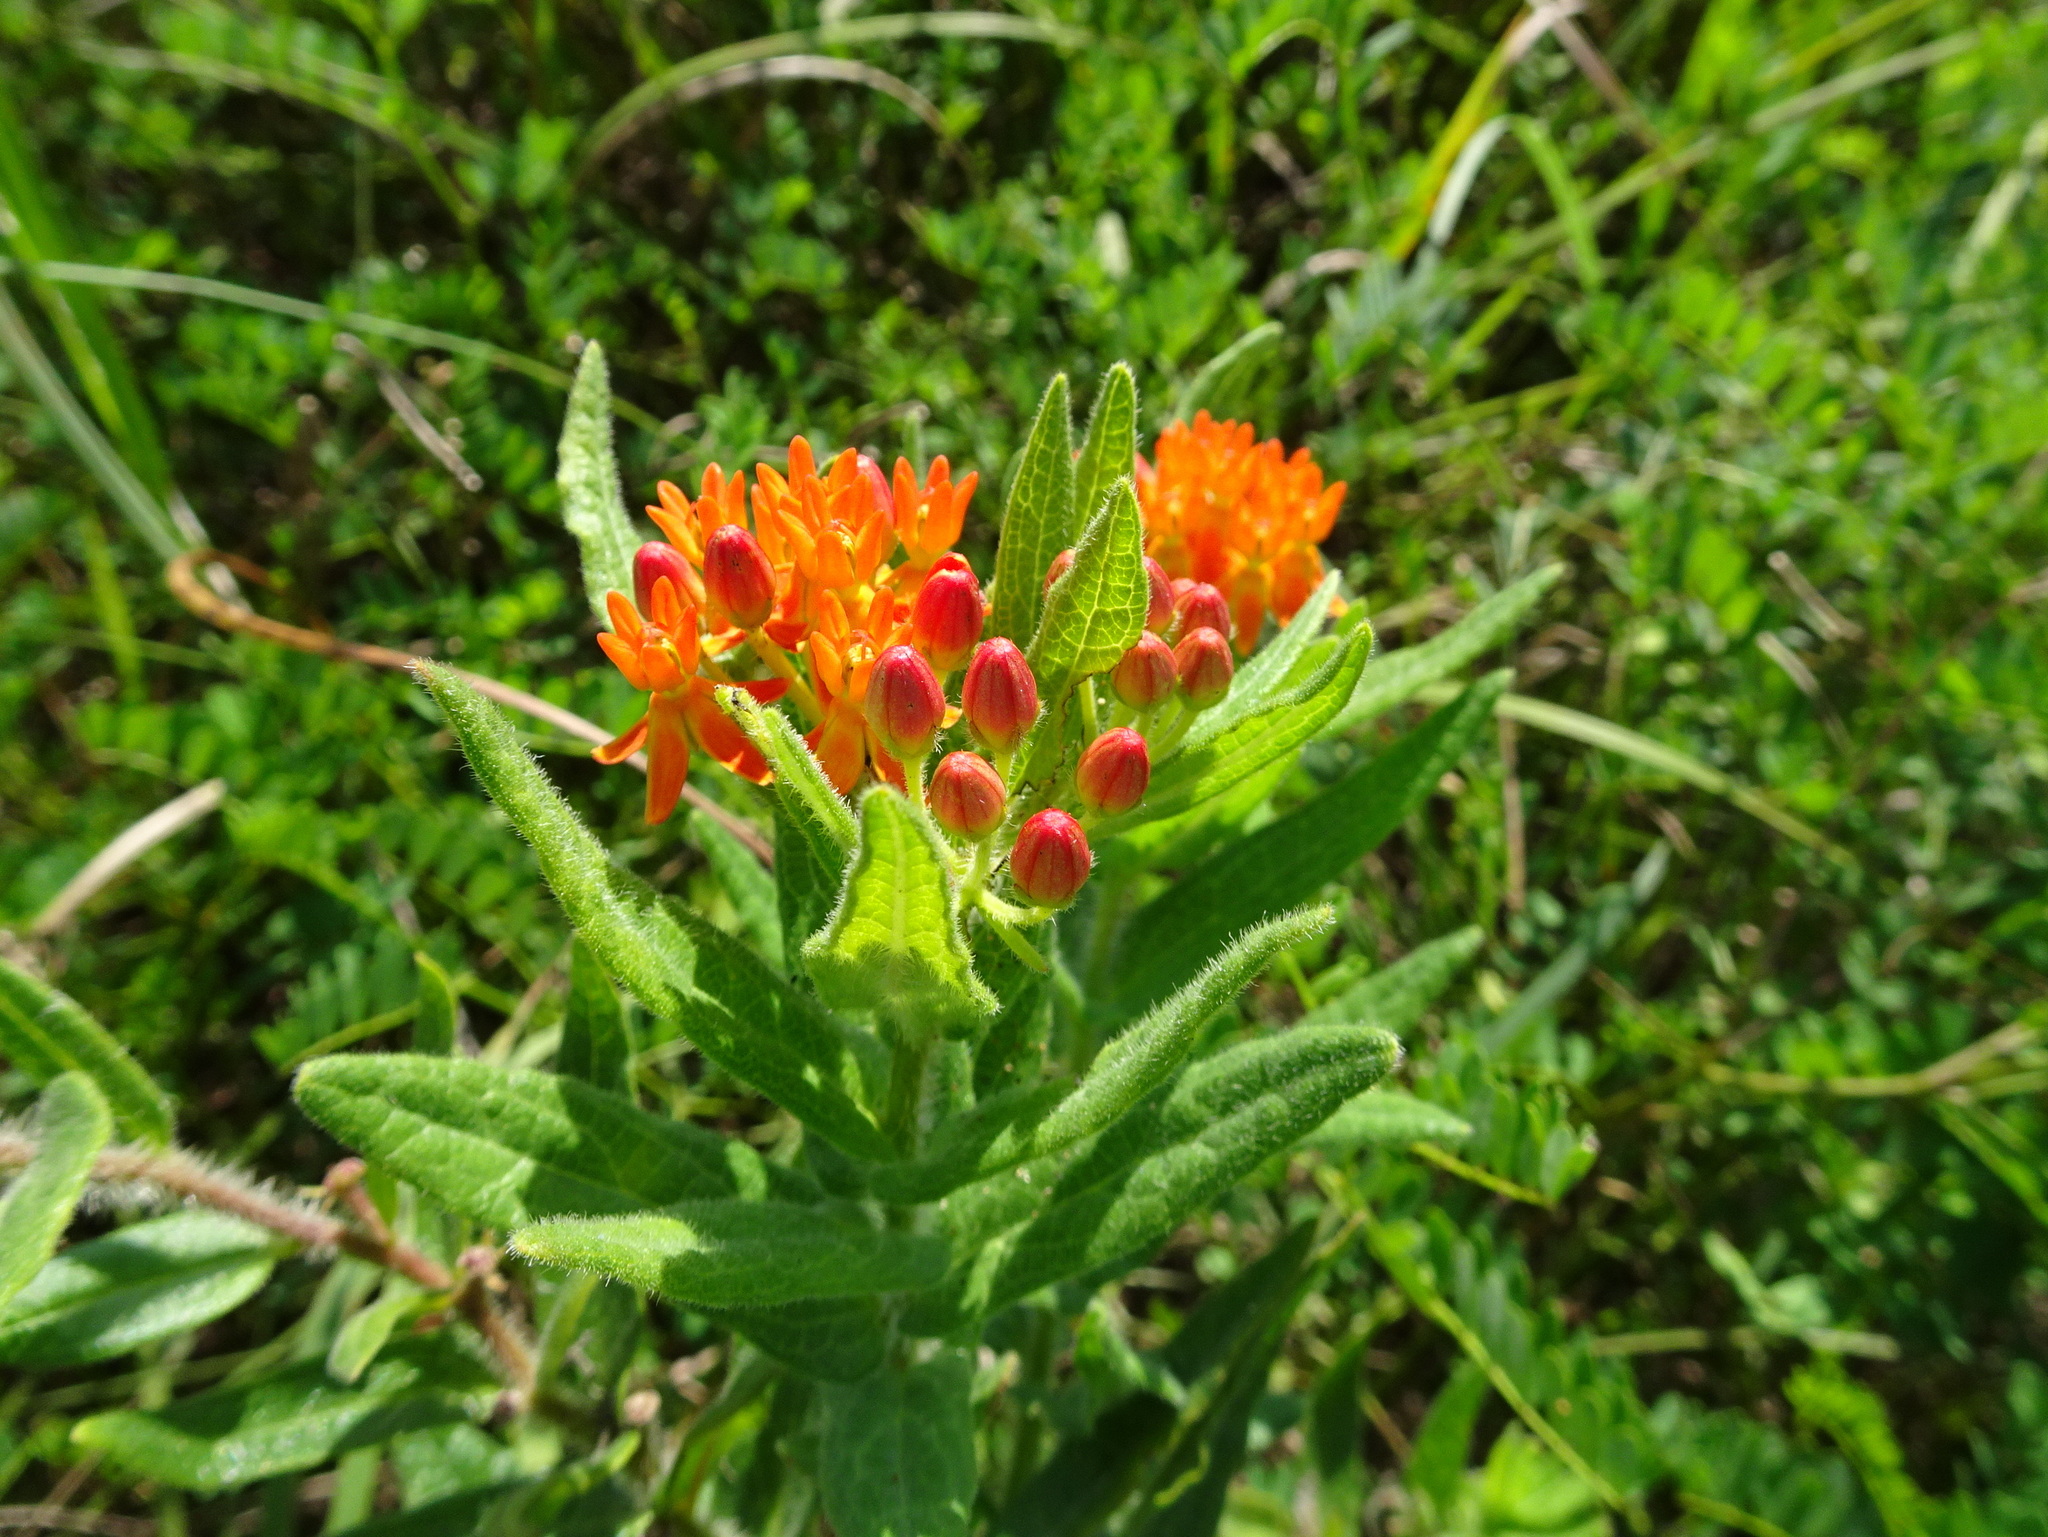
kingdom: Plantae
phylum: Tracheophyta
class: Magnoliopsida
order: Gentianales
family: Apocynaceae
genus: Asclepias
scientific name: Asclepias tuberosa
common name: Butterfly milkweed
